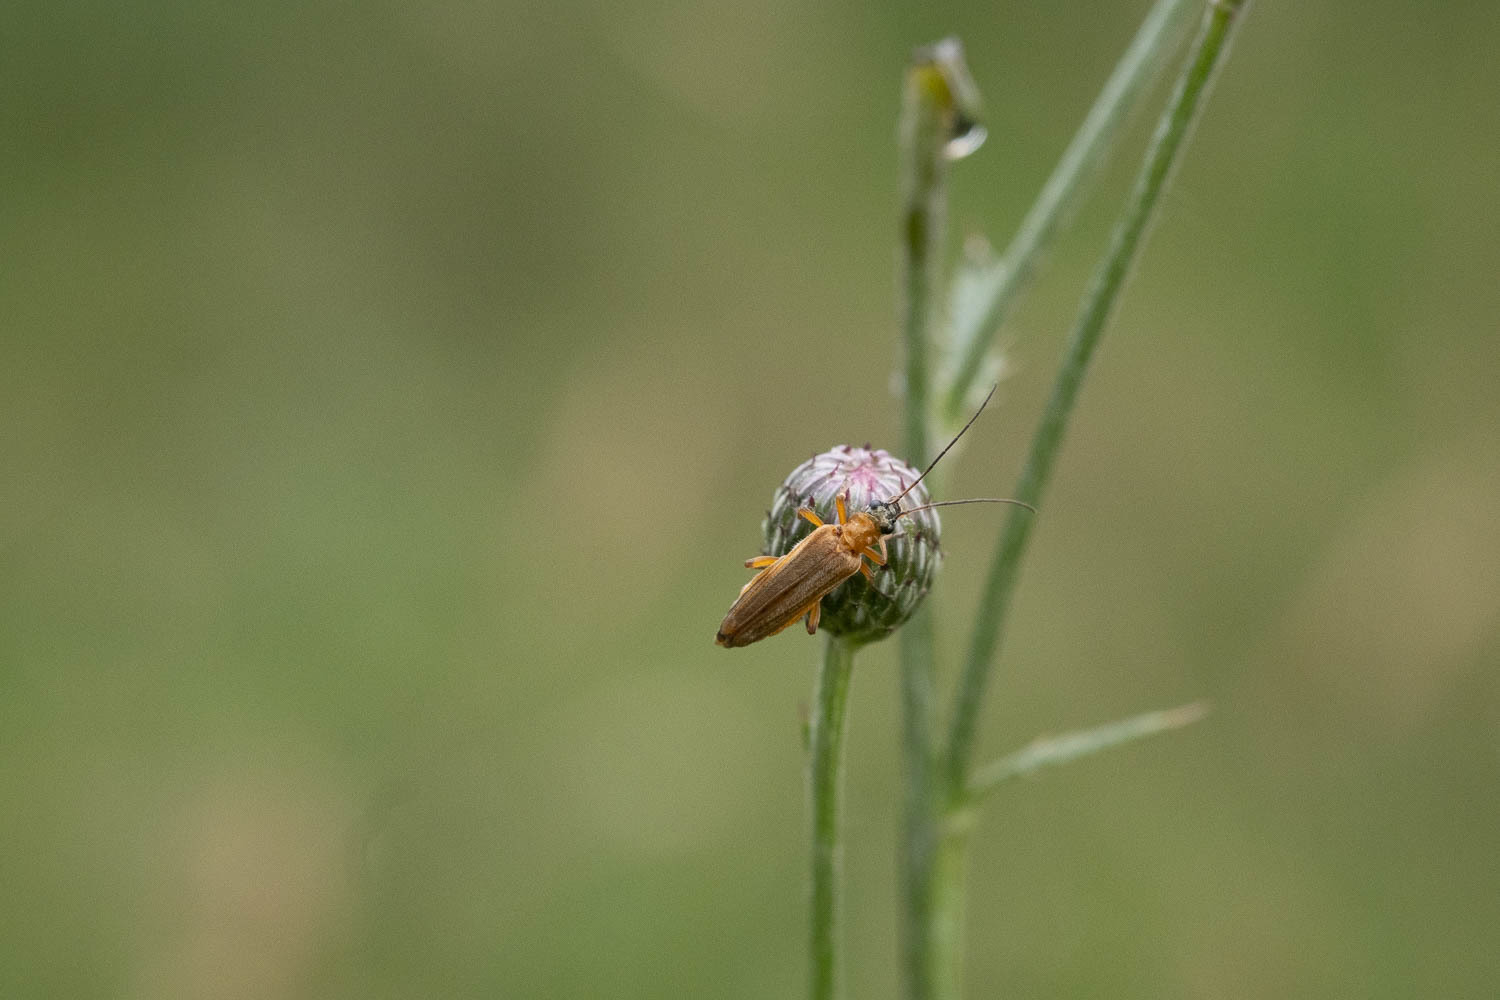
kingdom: Animalia
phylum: Arthropoda
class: Insecta
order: Coleoptera
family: Oedemeridae
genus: Oedemera
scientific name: Oedemera podagrariae
